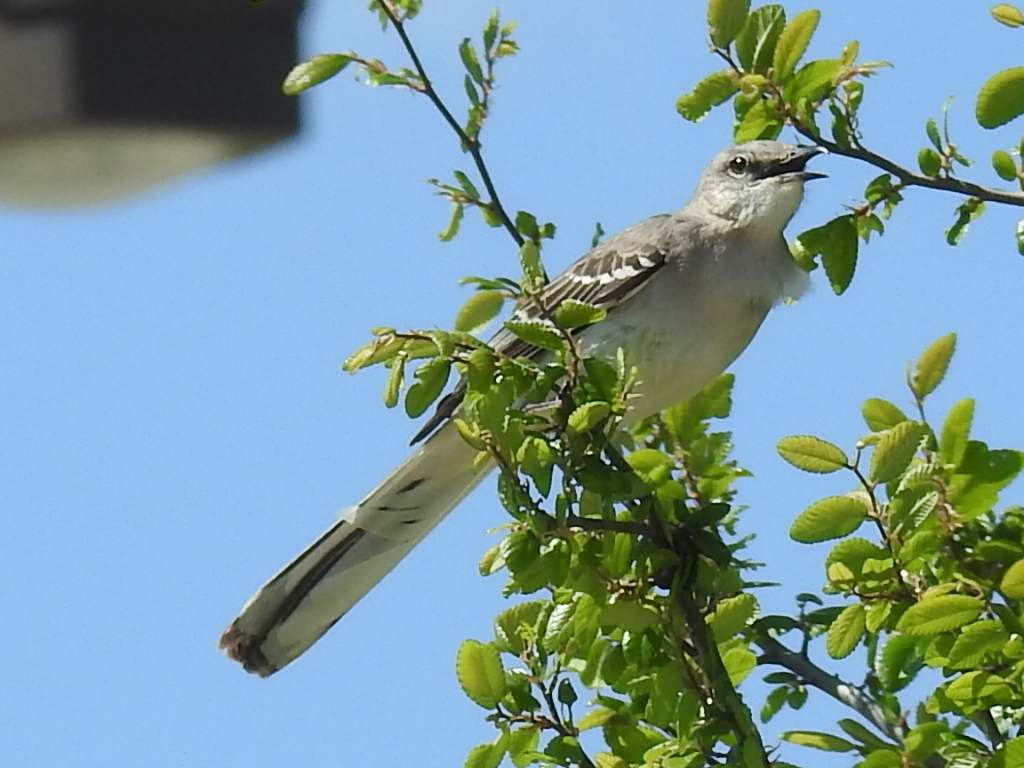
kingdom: Animalia
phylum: Chordata
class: Aves
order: Passeriformes
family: Mimidae
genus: Mimus
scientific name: Mimus polyglottos
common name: Northern mockingbird
